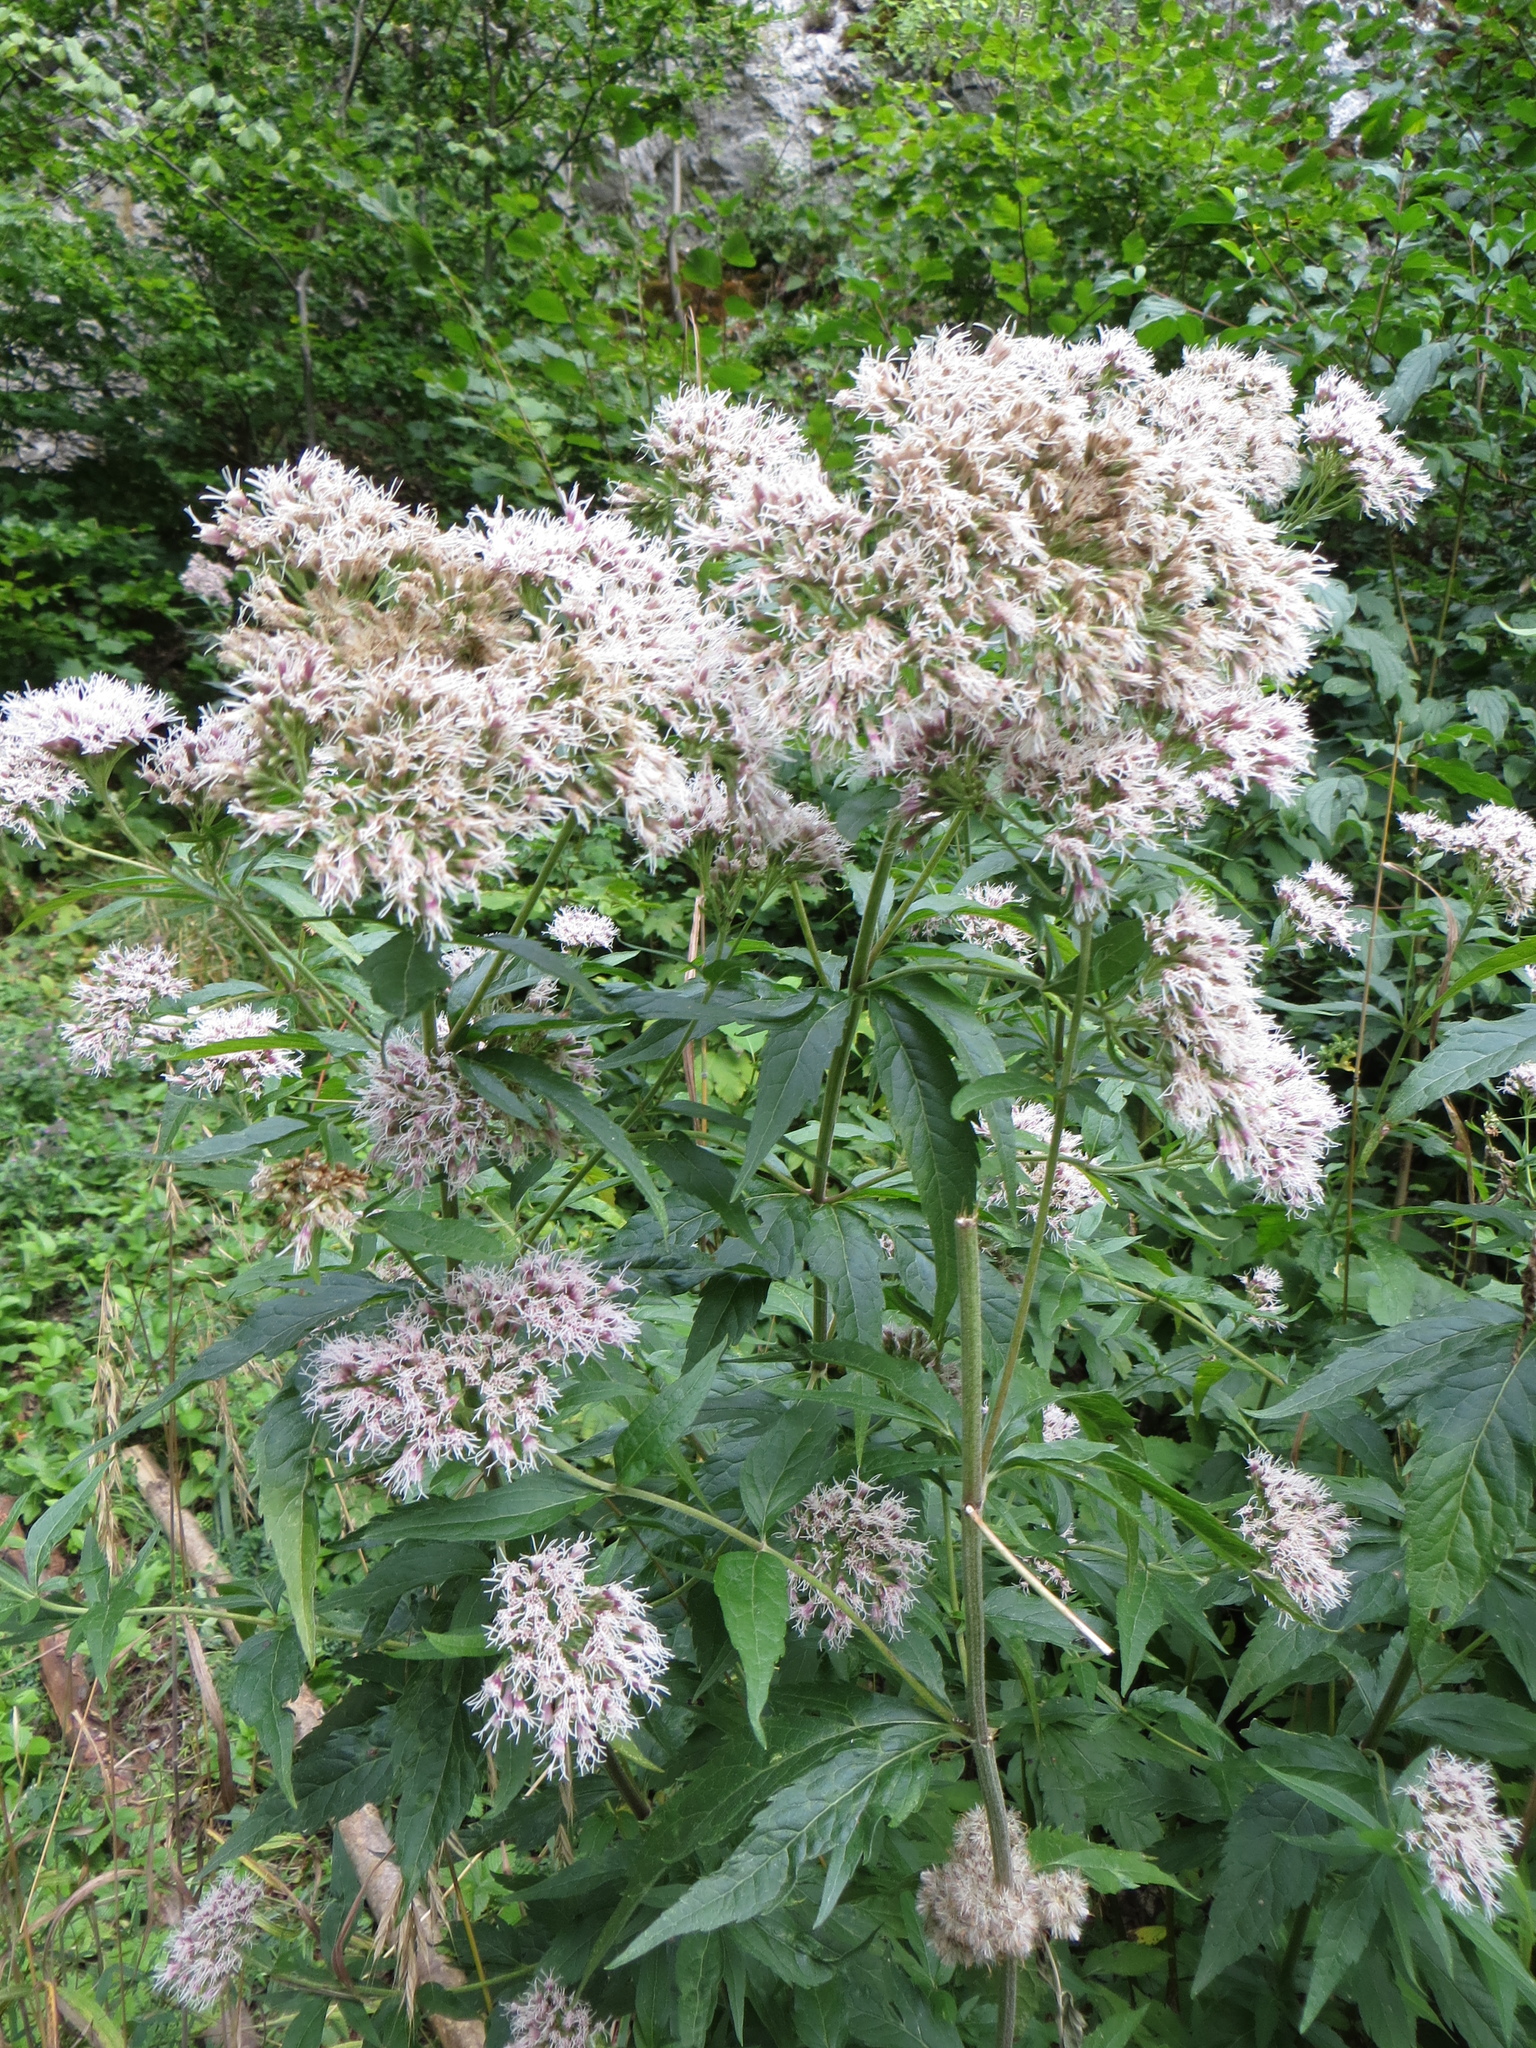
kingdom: Plantae
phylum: Tracheophyta
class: Magnoliopsida
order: Asterales
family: Asteraceae
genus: Eupatorium
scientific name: Eupatorium cannabinum
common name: Hemp-agrimony
